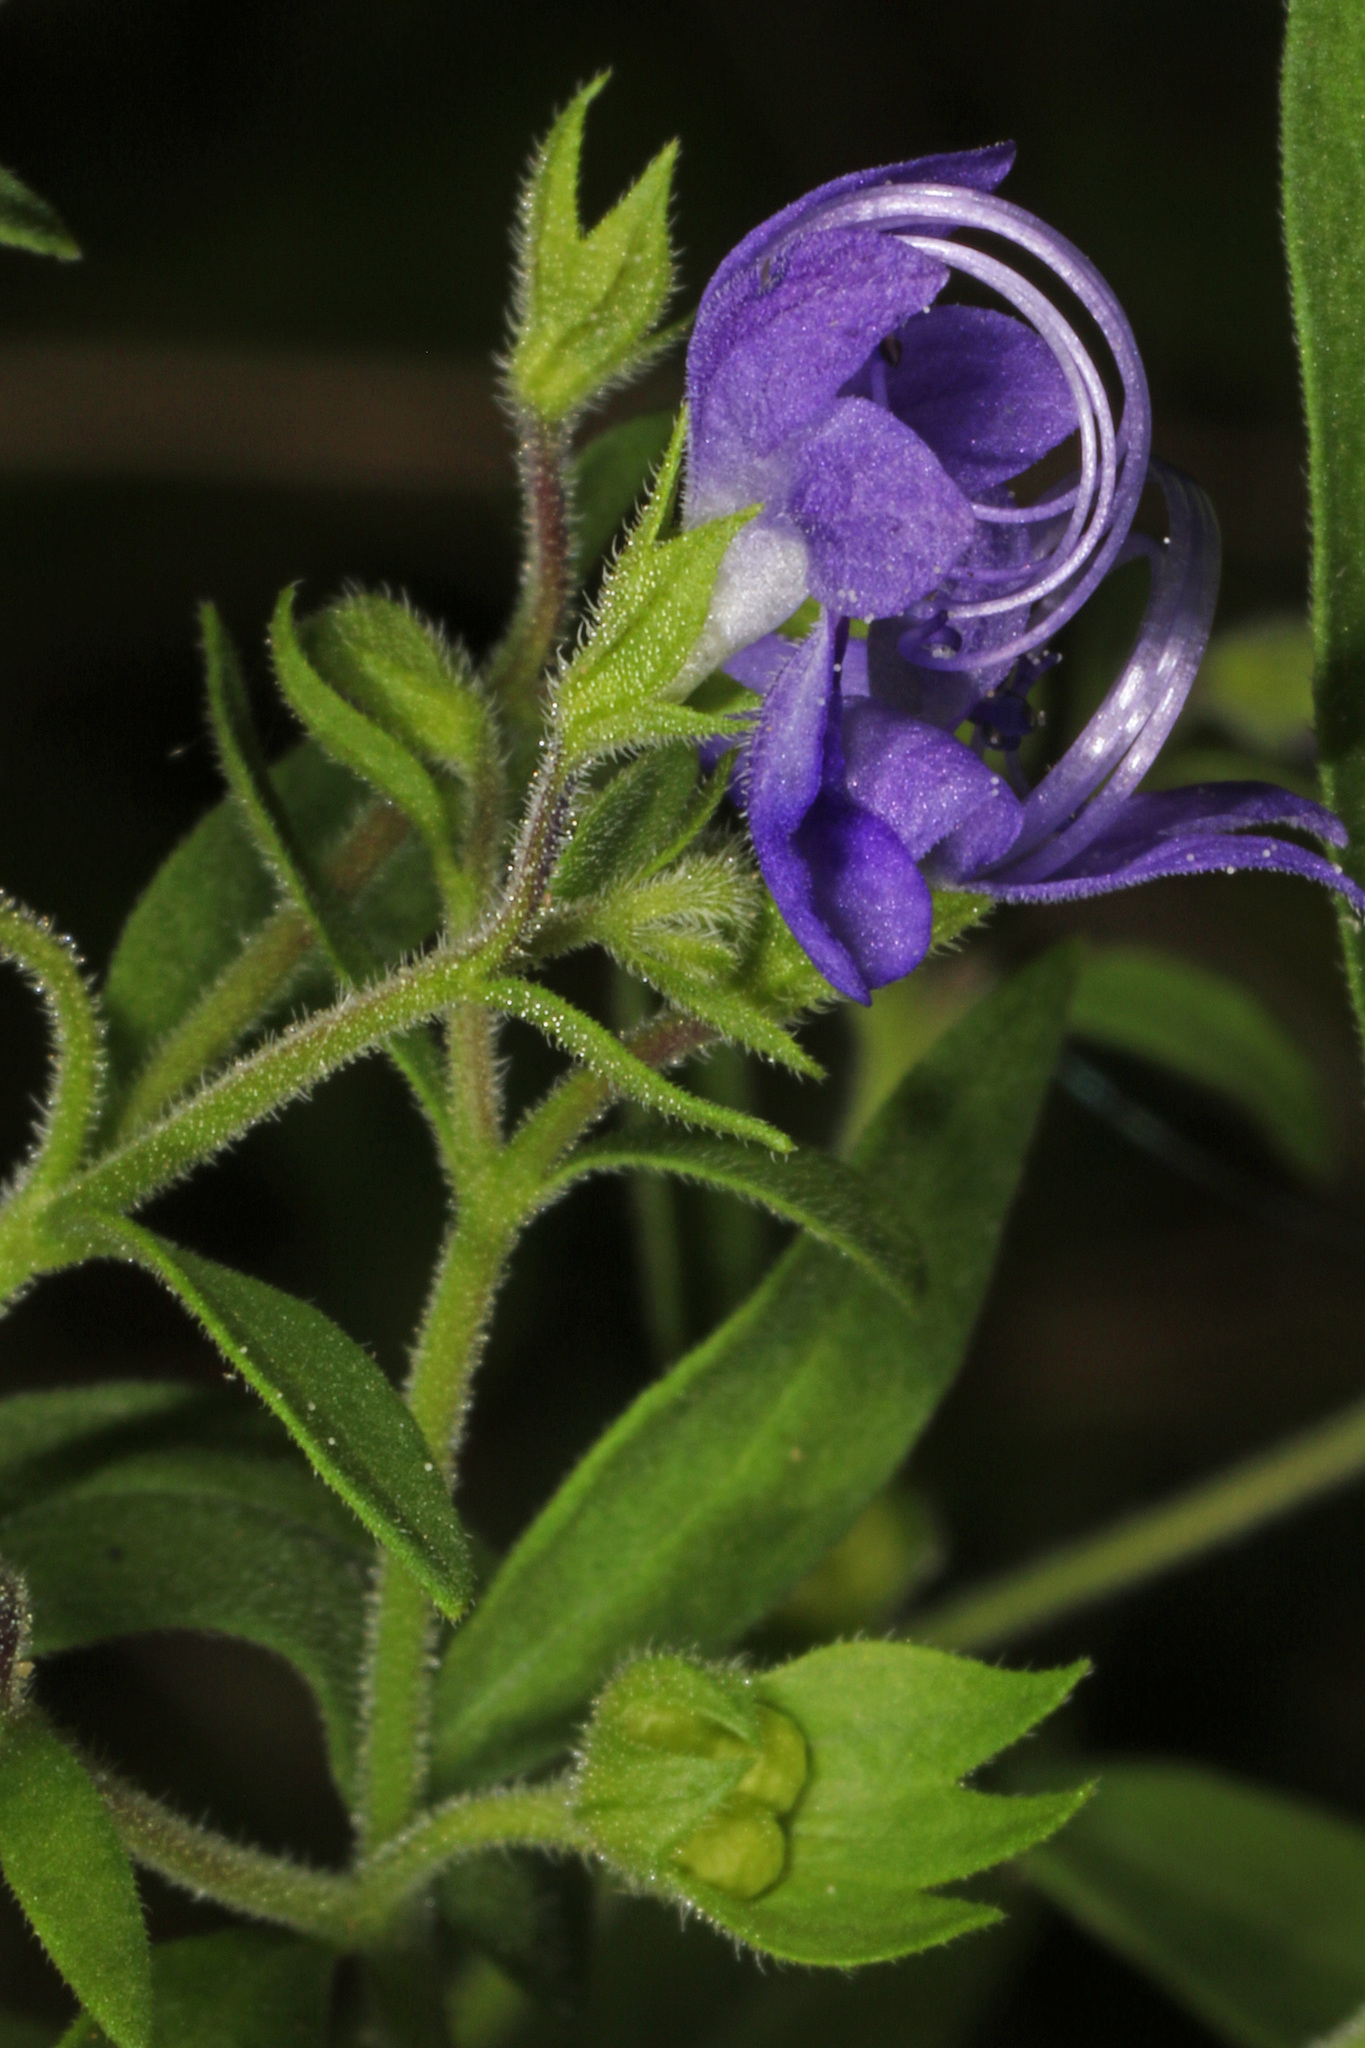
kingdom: Plantae
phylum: Tracheophyta
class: Magnoliopsida
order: Lamiales
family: Lamiaceae
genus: Trichostema
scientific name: Trichostema dichotomum
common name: Bastard pennyroyal
